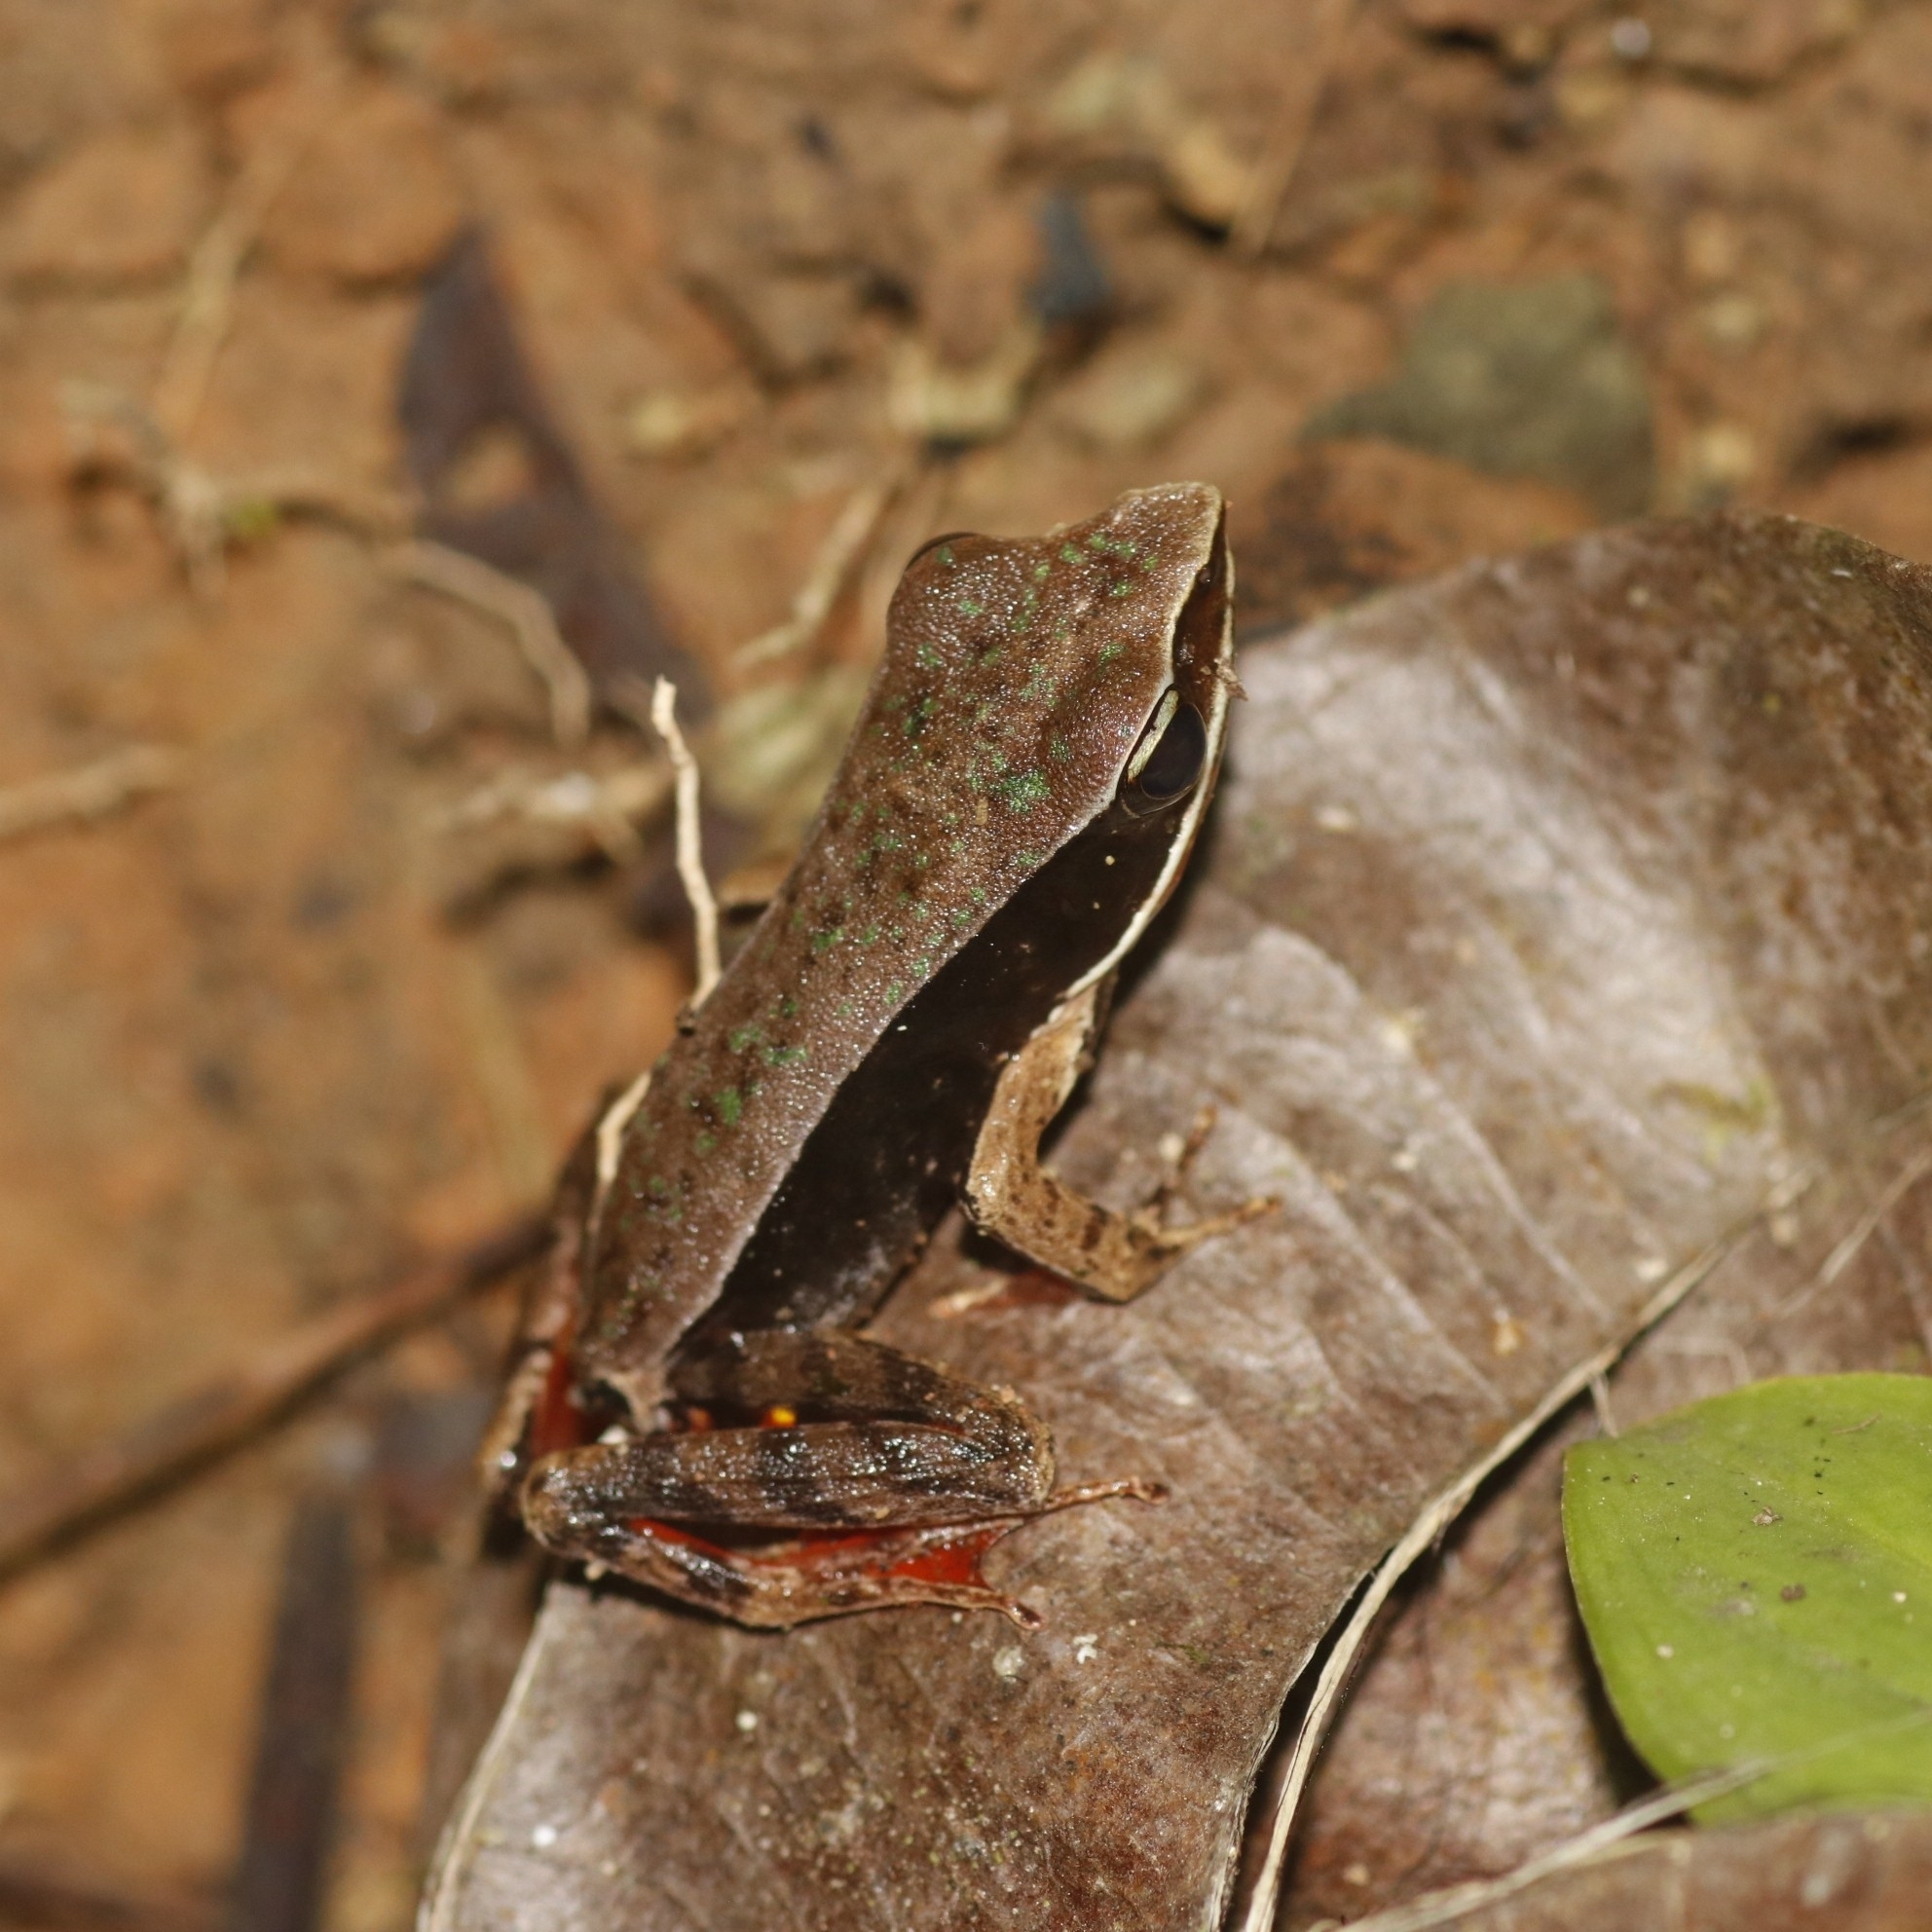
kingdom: Animalia
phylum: Chordata
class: Amphibia
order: Anura
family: Ranidae
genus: Lithobates
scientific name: Lithobates warszewitschii
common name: Warszewitsch's frog
